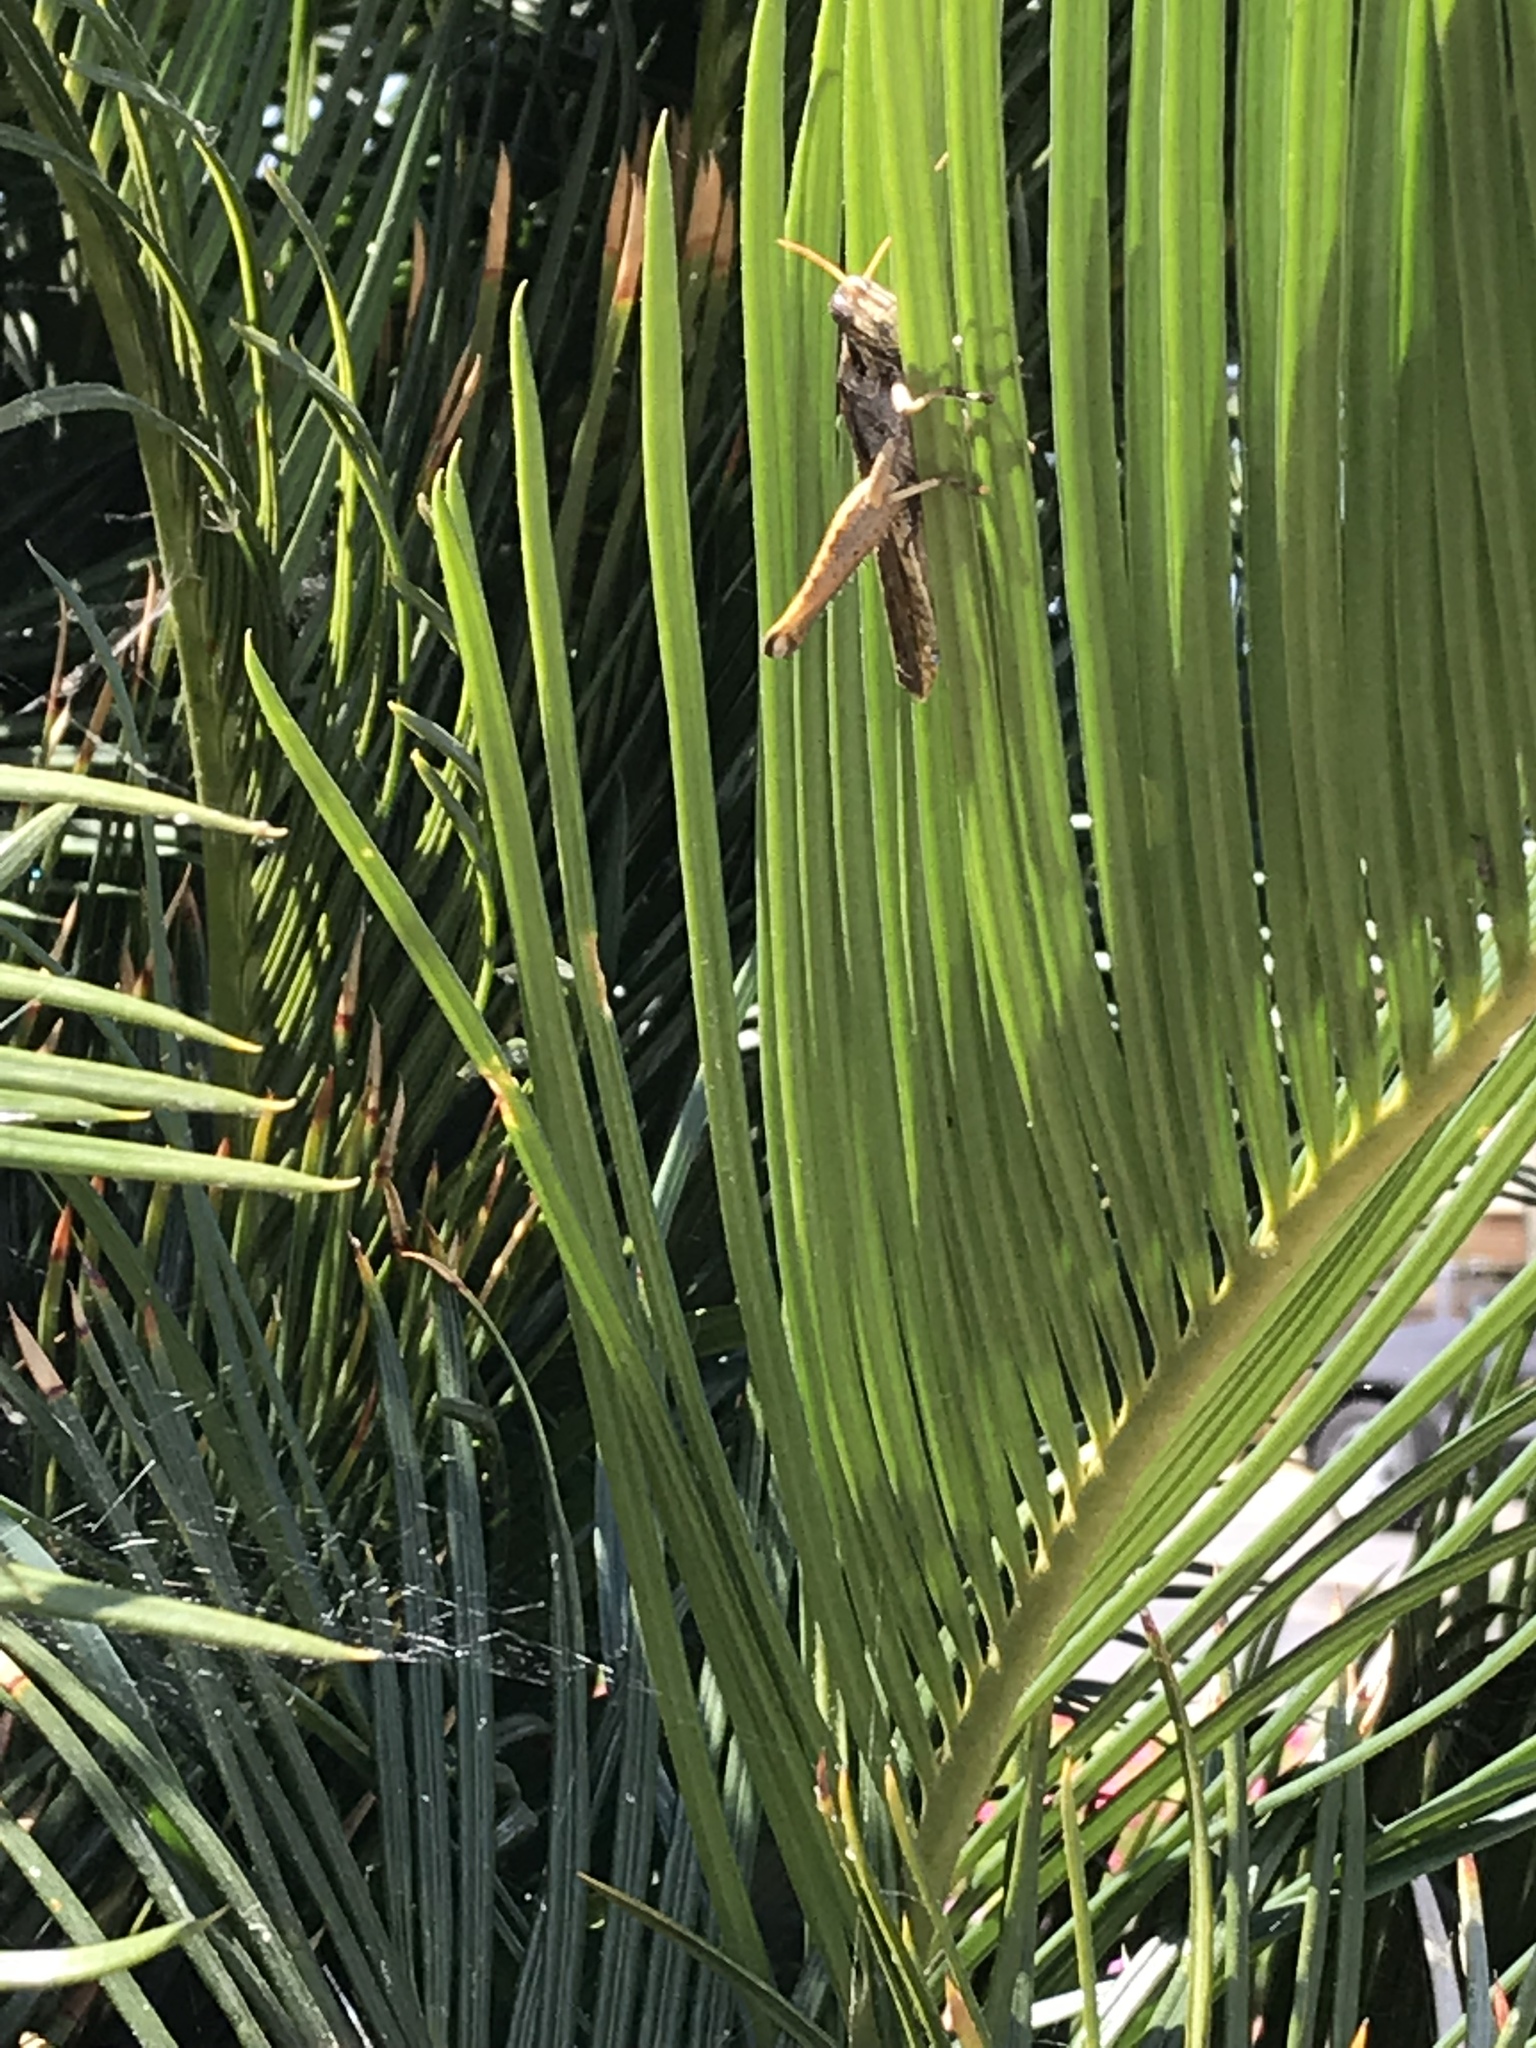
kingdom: Animalia
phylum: Arthropoda
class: Insecta
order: Orthoptera
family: Acrididae
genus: Schistocerca
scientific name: Schistocerca nitens
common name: Vagrant grasshopper
